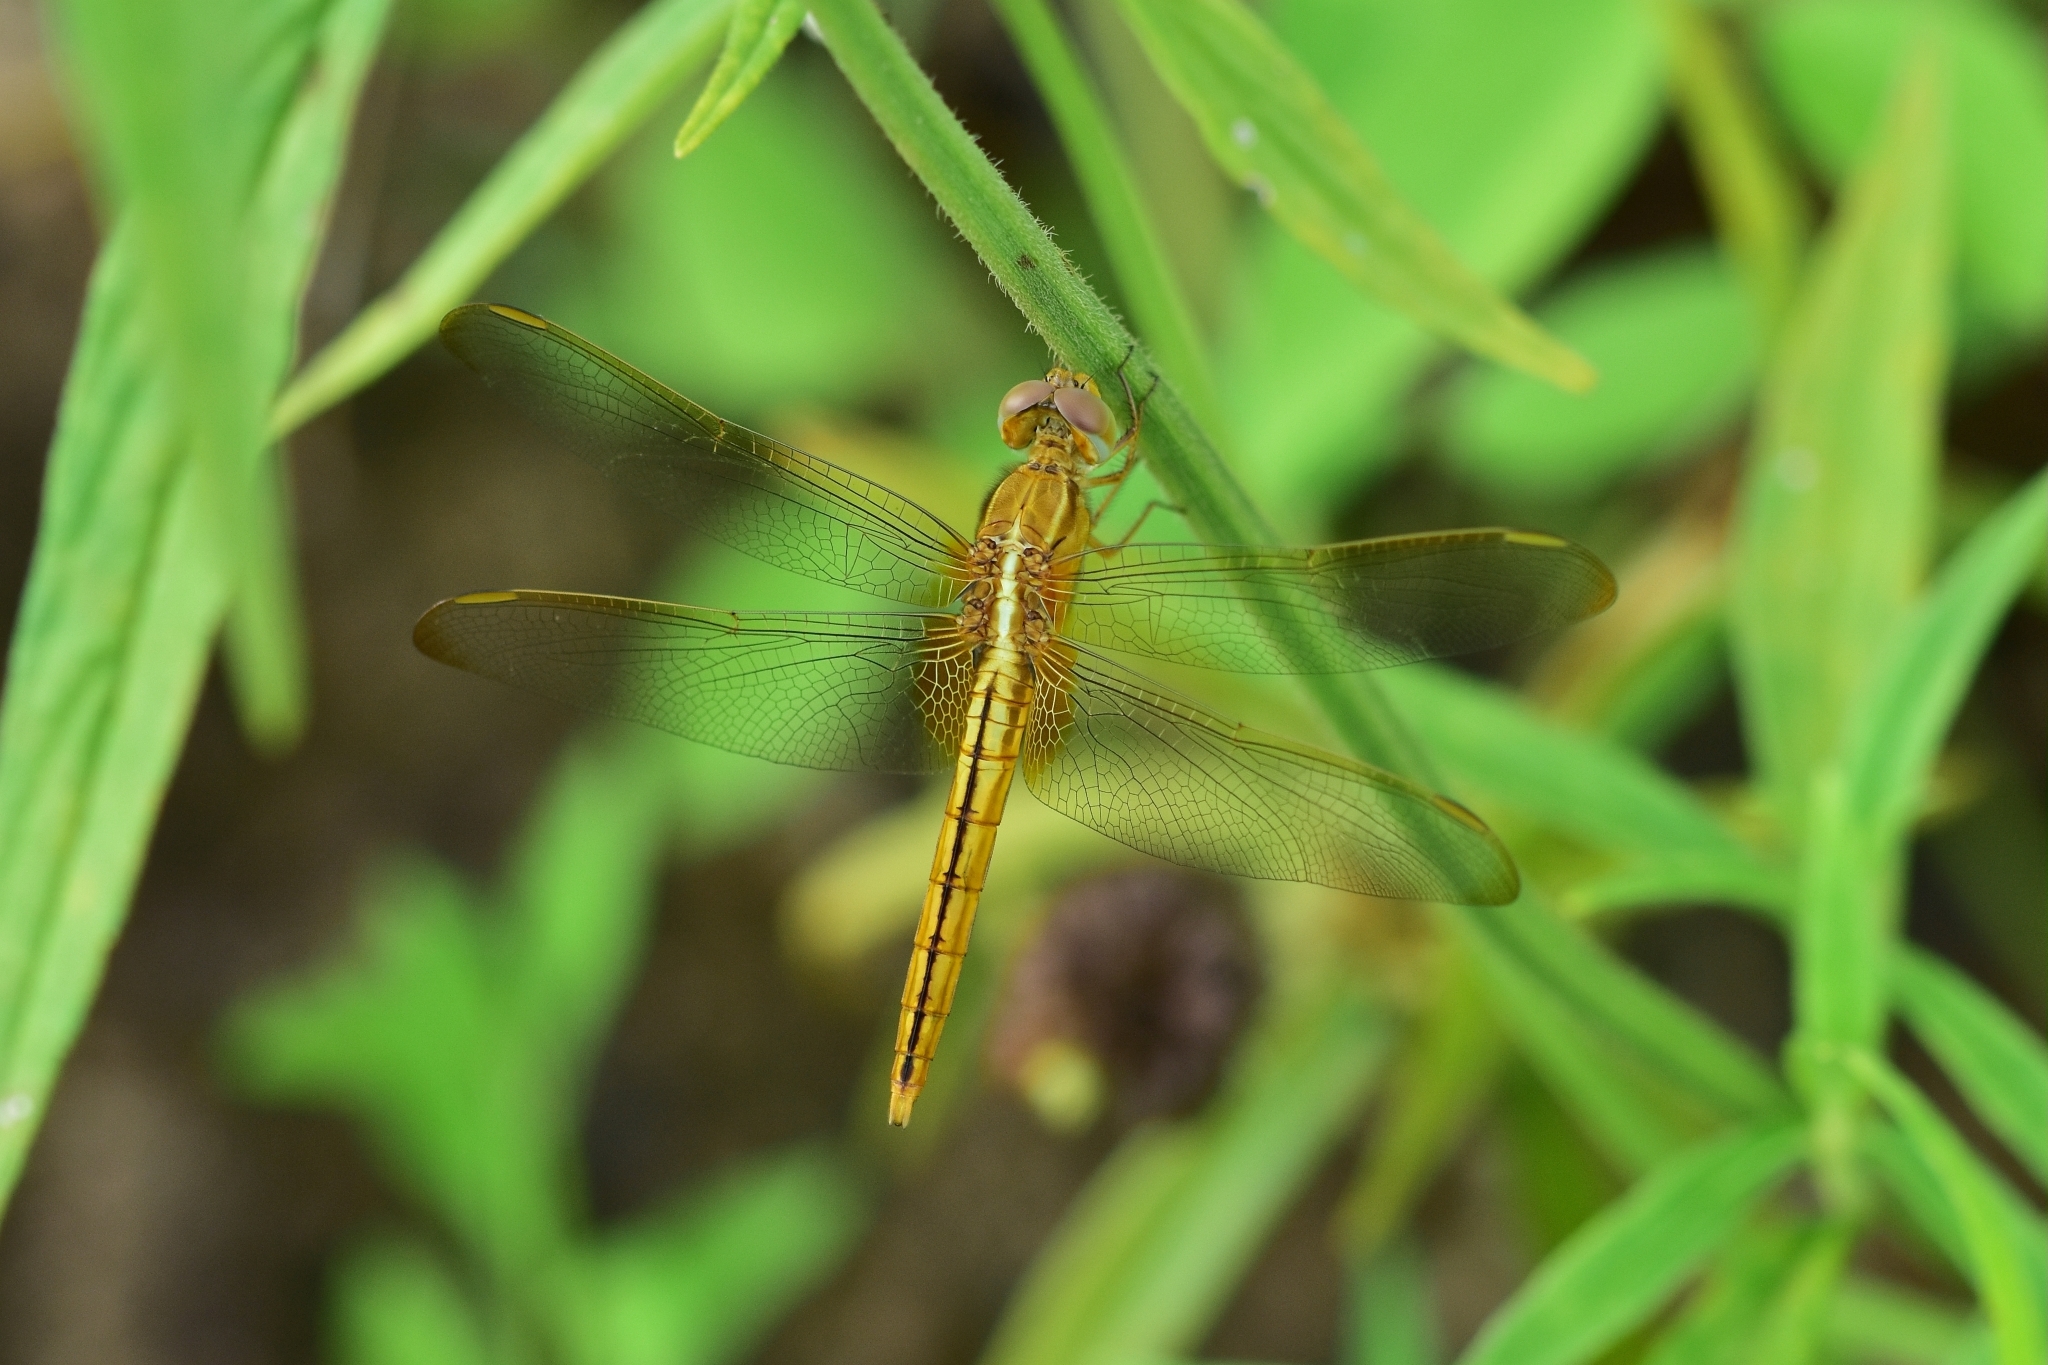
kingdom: Animalia
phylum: Arthropoda
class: Insecta
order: Odonata
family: Libellulidae
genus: Crocothemis
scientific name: Crocothemis servilia
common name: Scarlet skimmer
